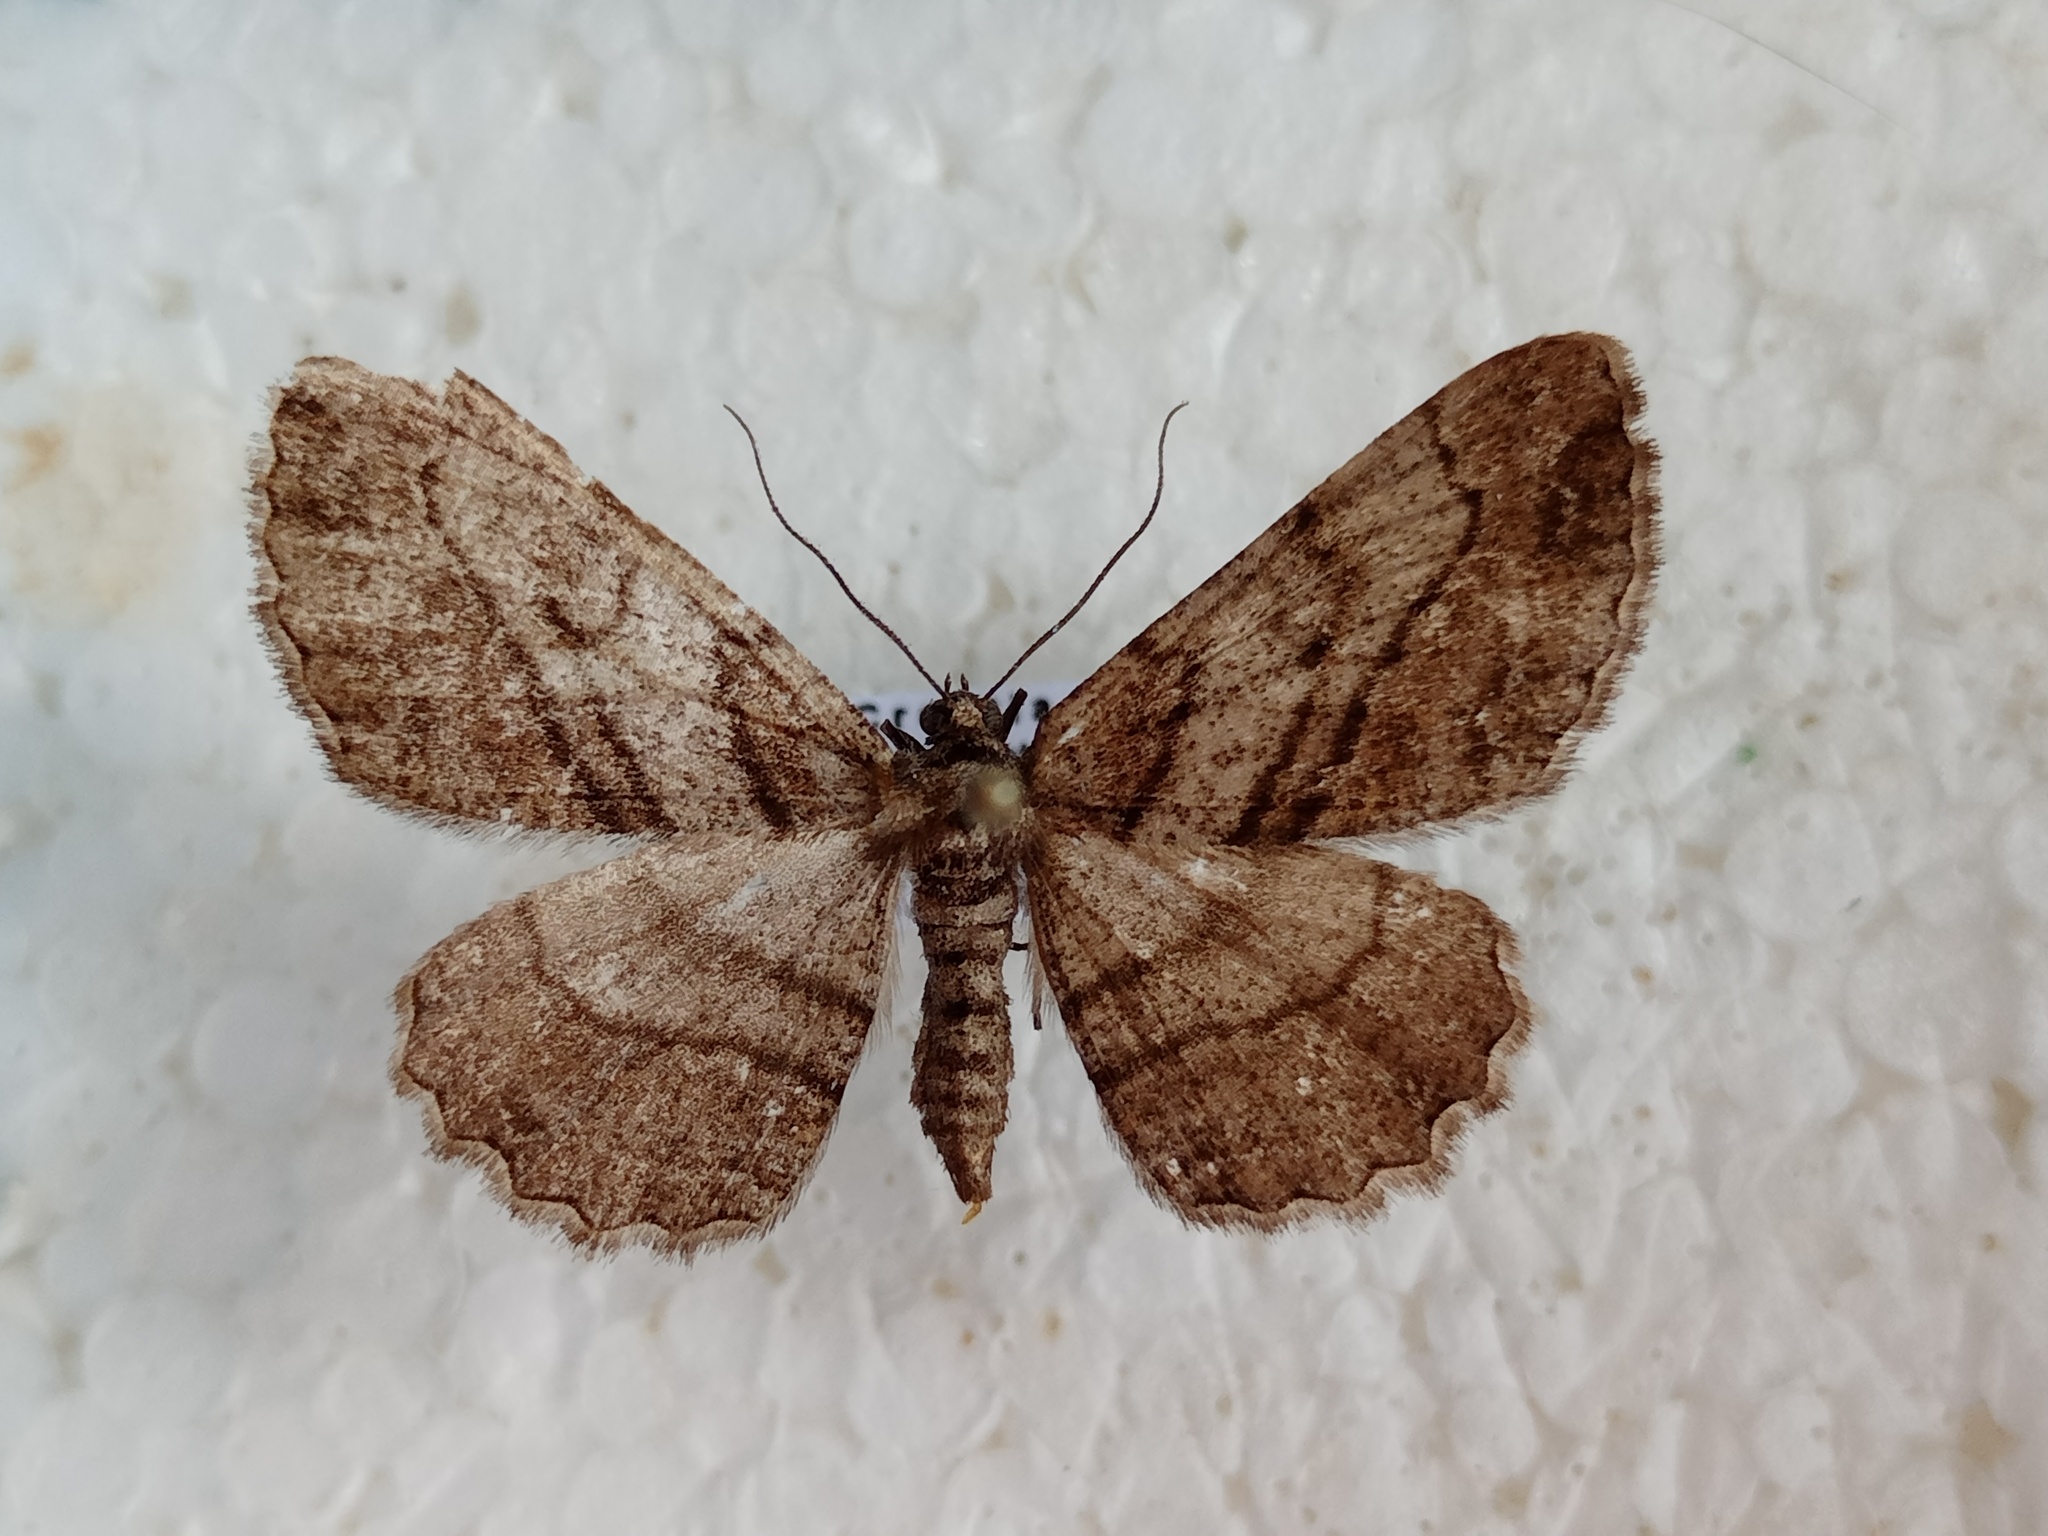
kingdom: Animalia
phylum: Arthropoda
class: Insecta
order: Lepidoptera
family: Geometridae
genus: Peribatodes
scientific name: Peribatodes correptaria
